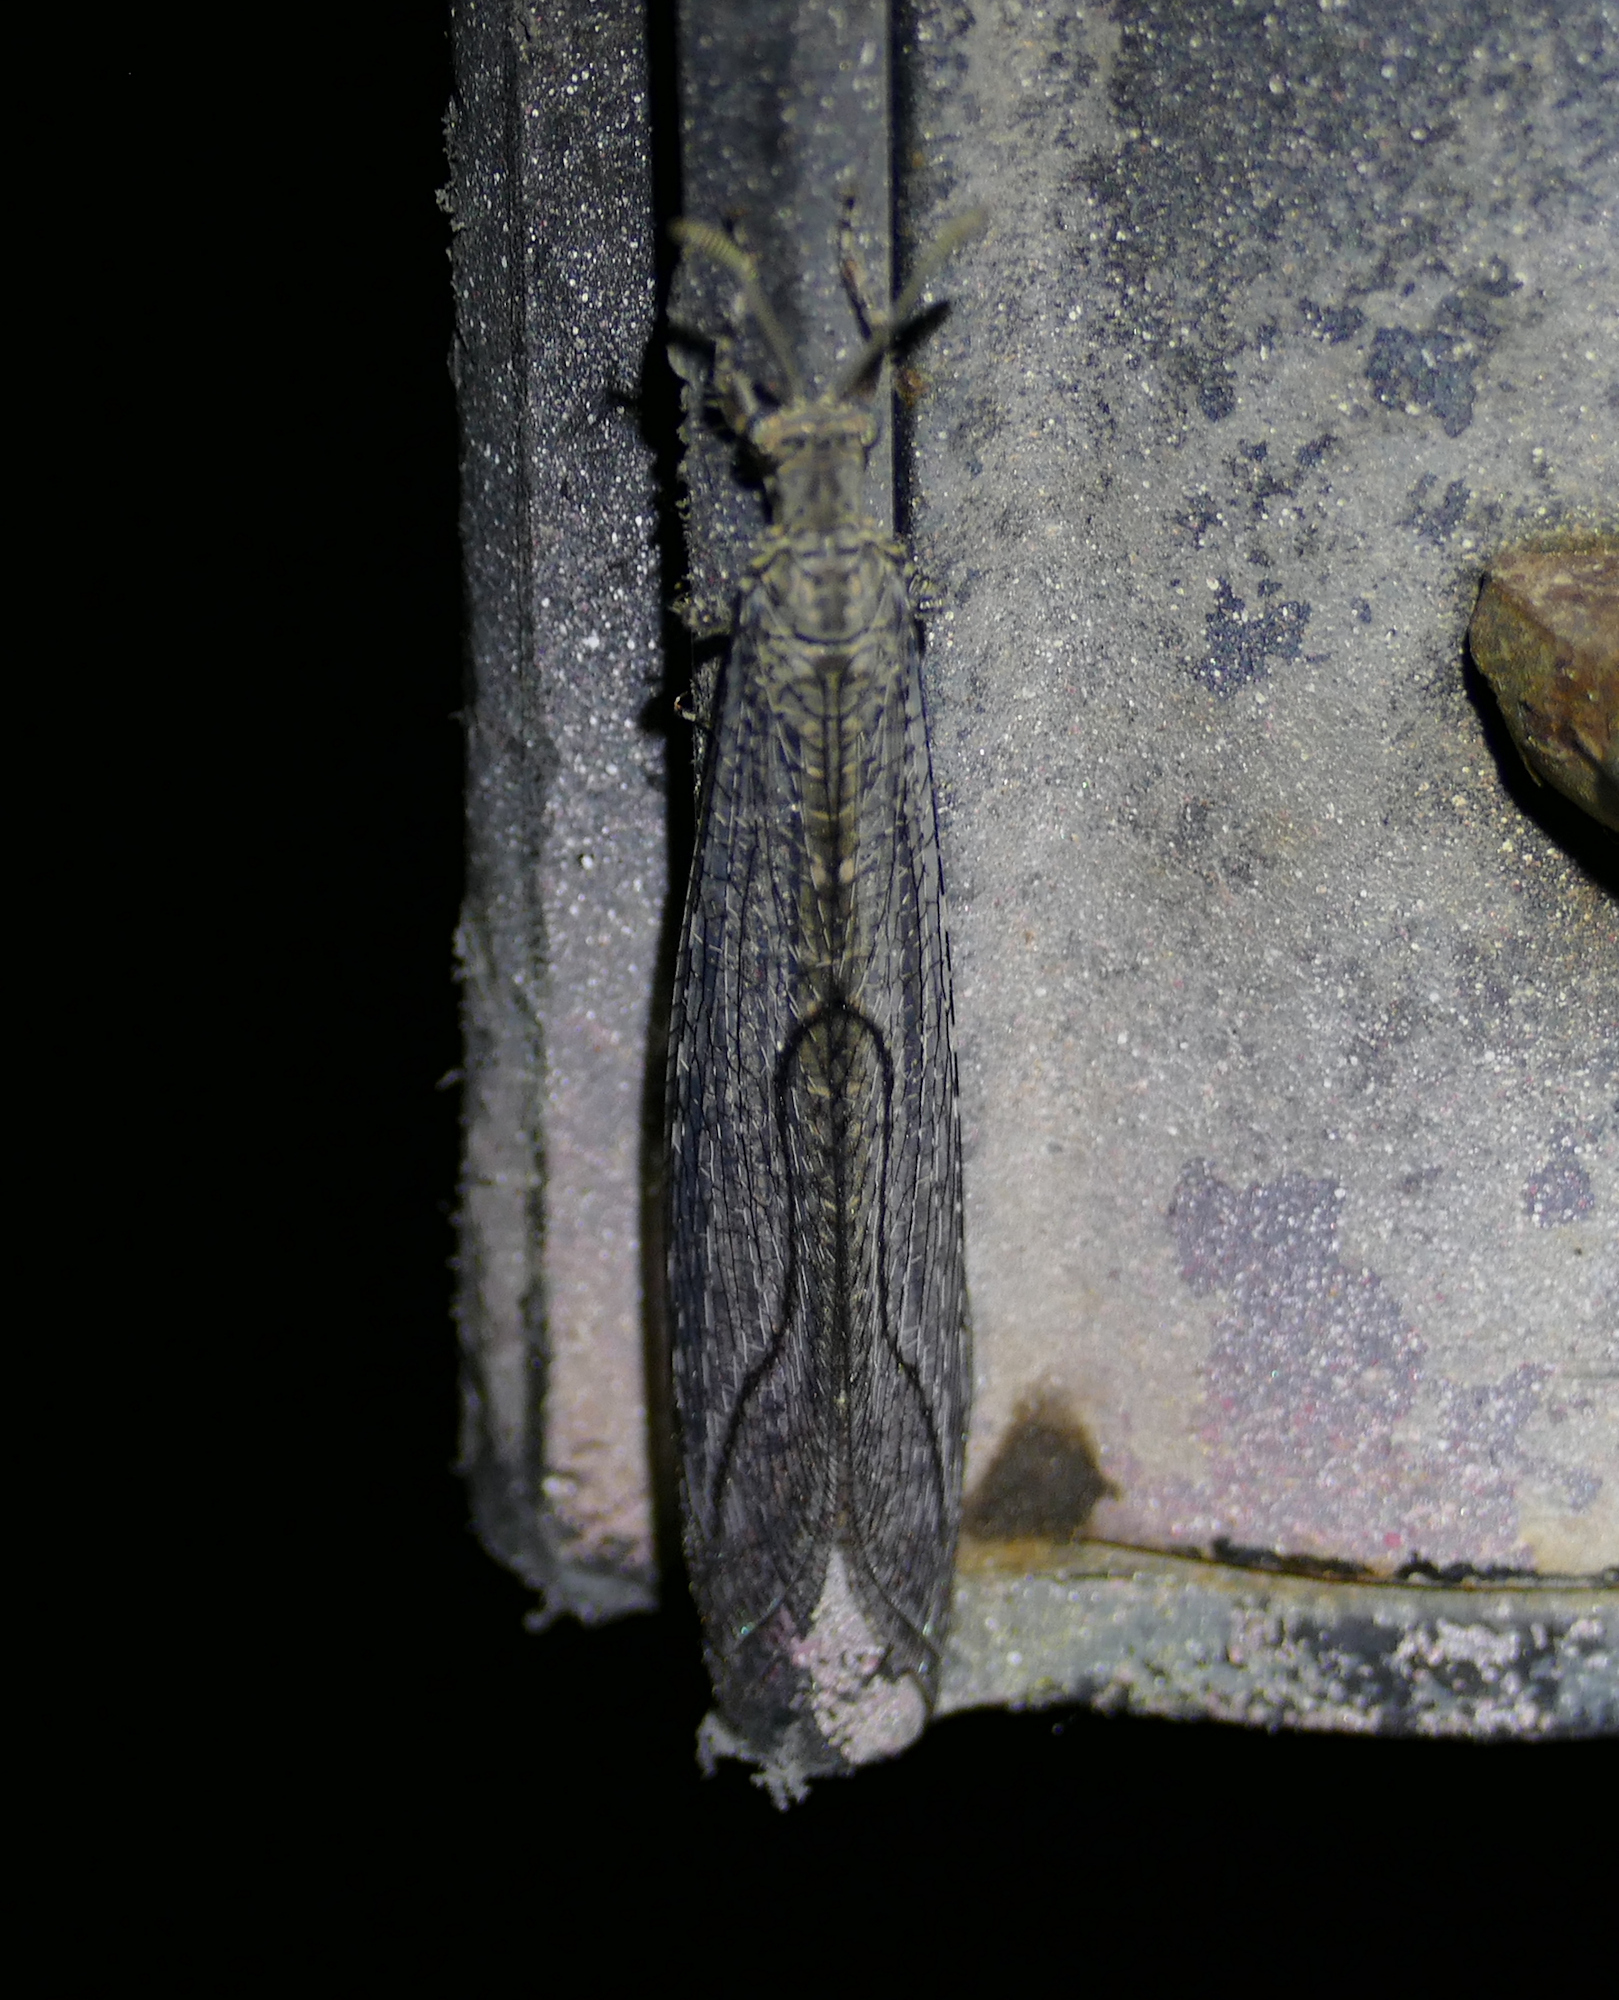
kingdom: Animalia
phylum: Arthropoda
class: Insecta
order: Neuroptera
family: Myrmeleontidae
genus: Euptilon
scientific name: Euptilon sinuatum
